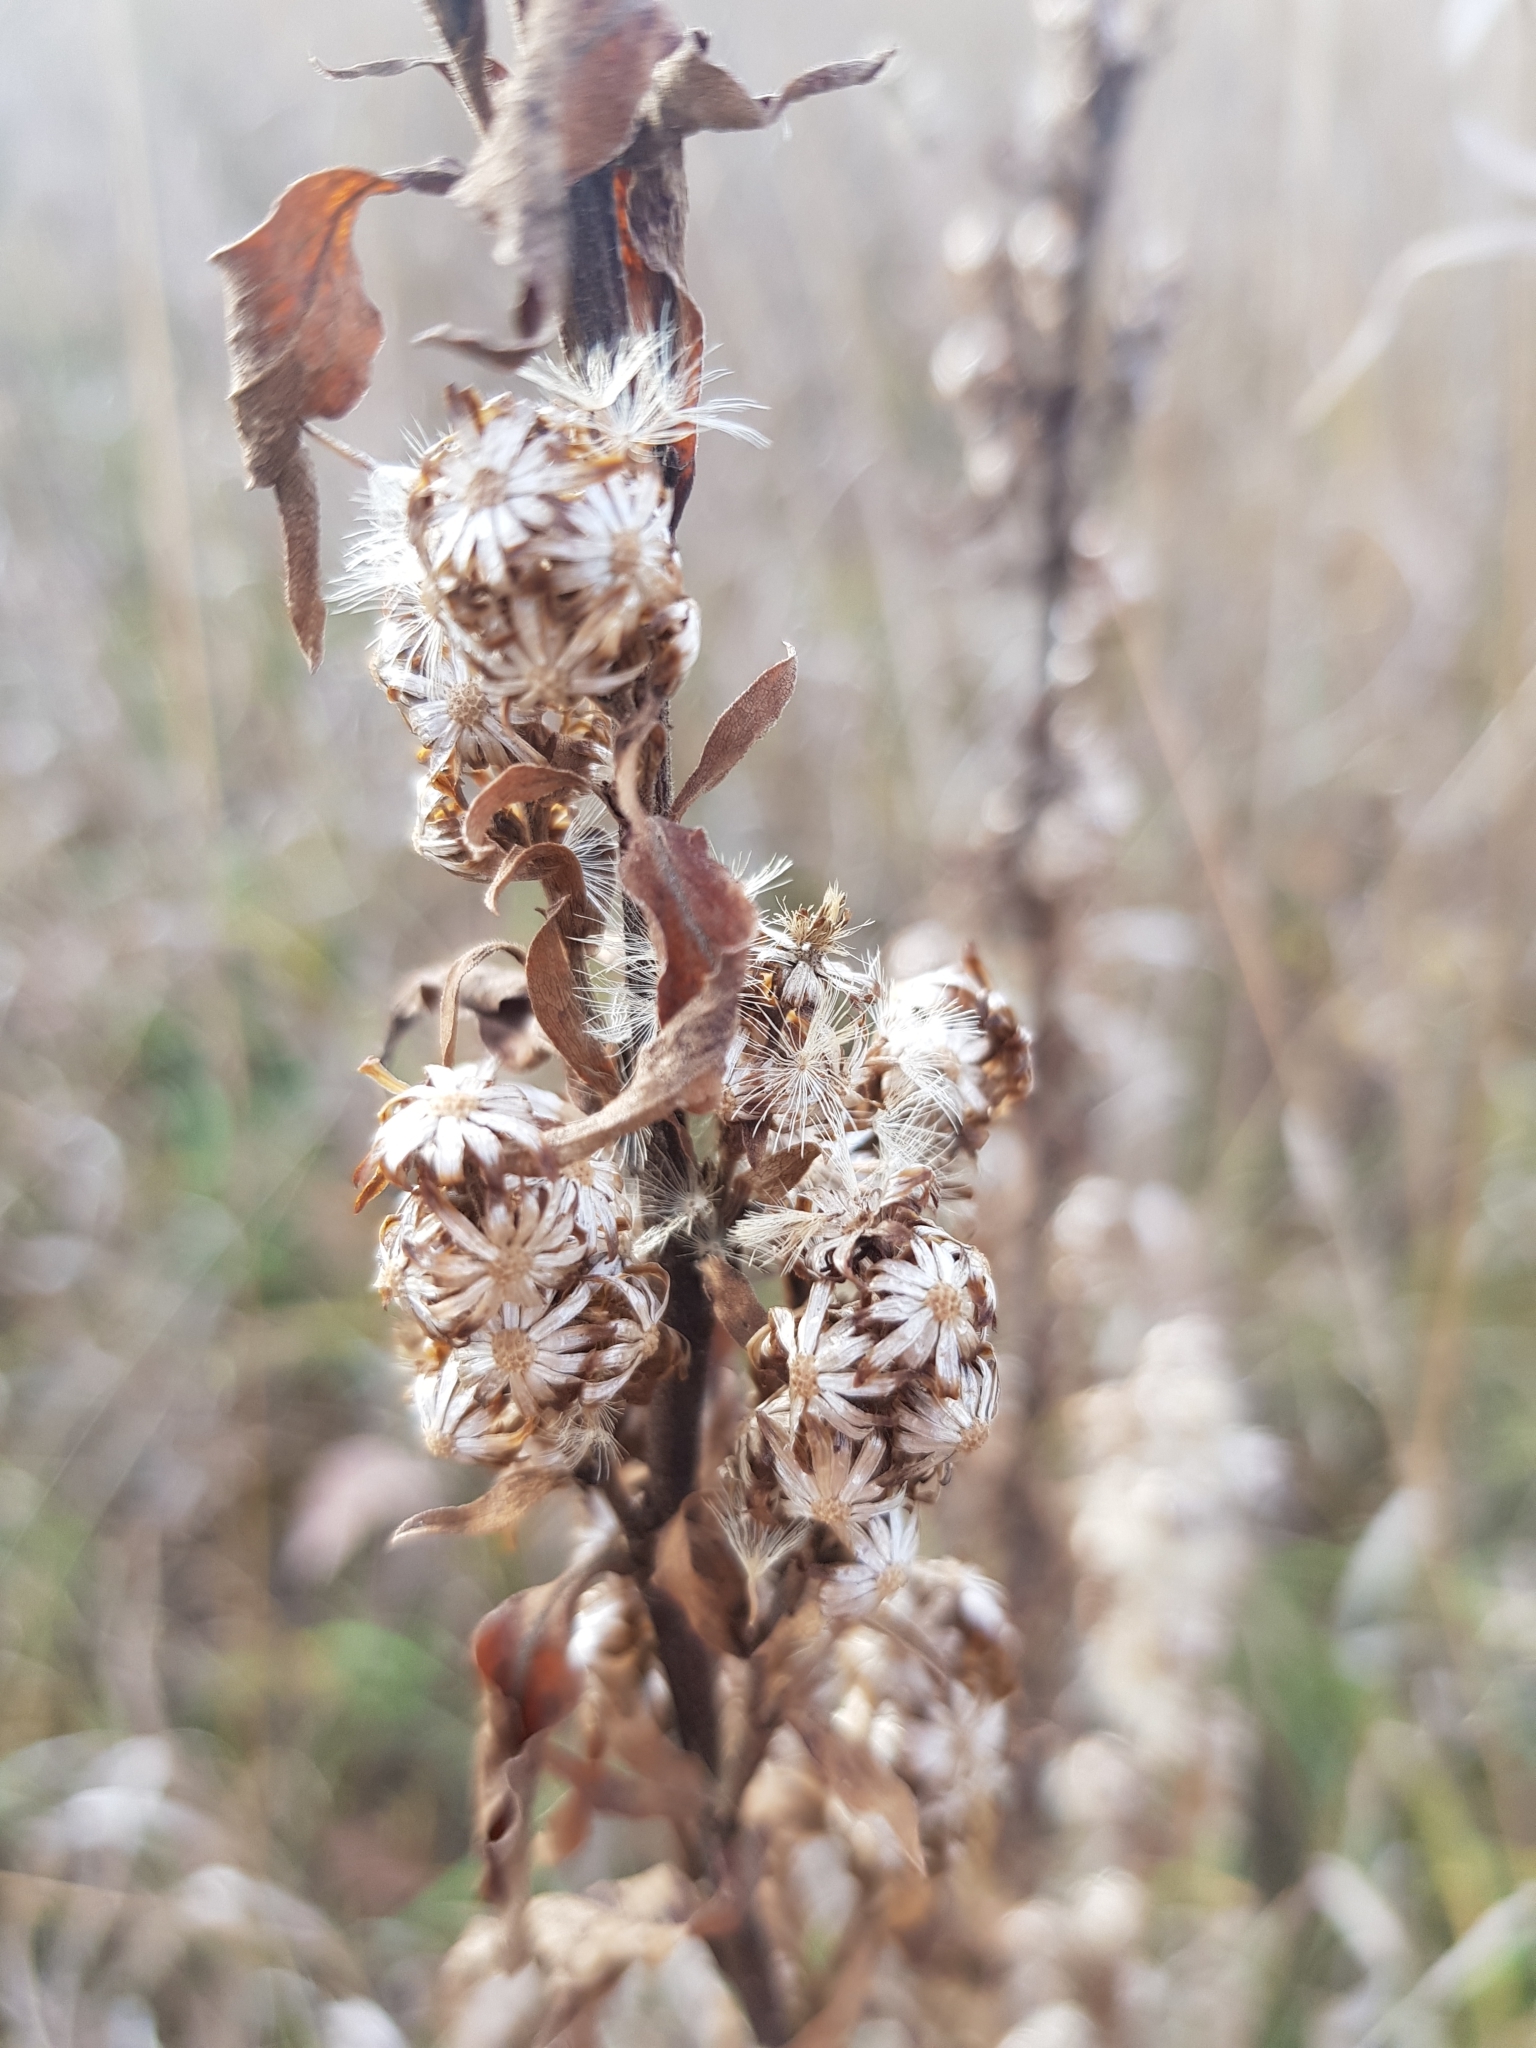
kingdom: Plantae
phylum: Tracheophyta
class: Magnoliopsida
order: Asterales
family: Asteraceae
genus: Solidago
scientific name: Solidago virgaurea
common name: Goldenrod
